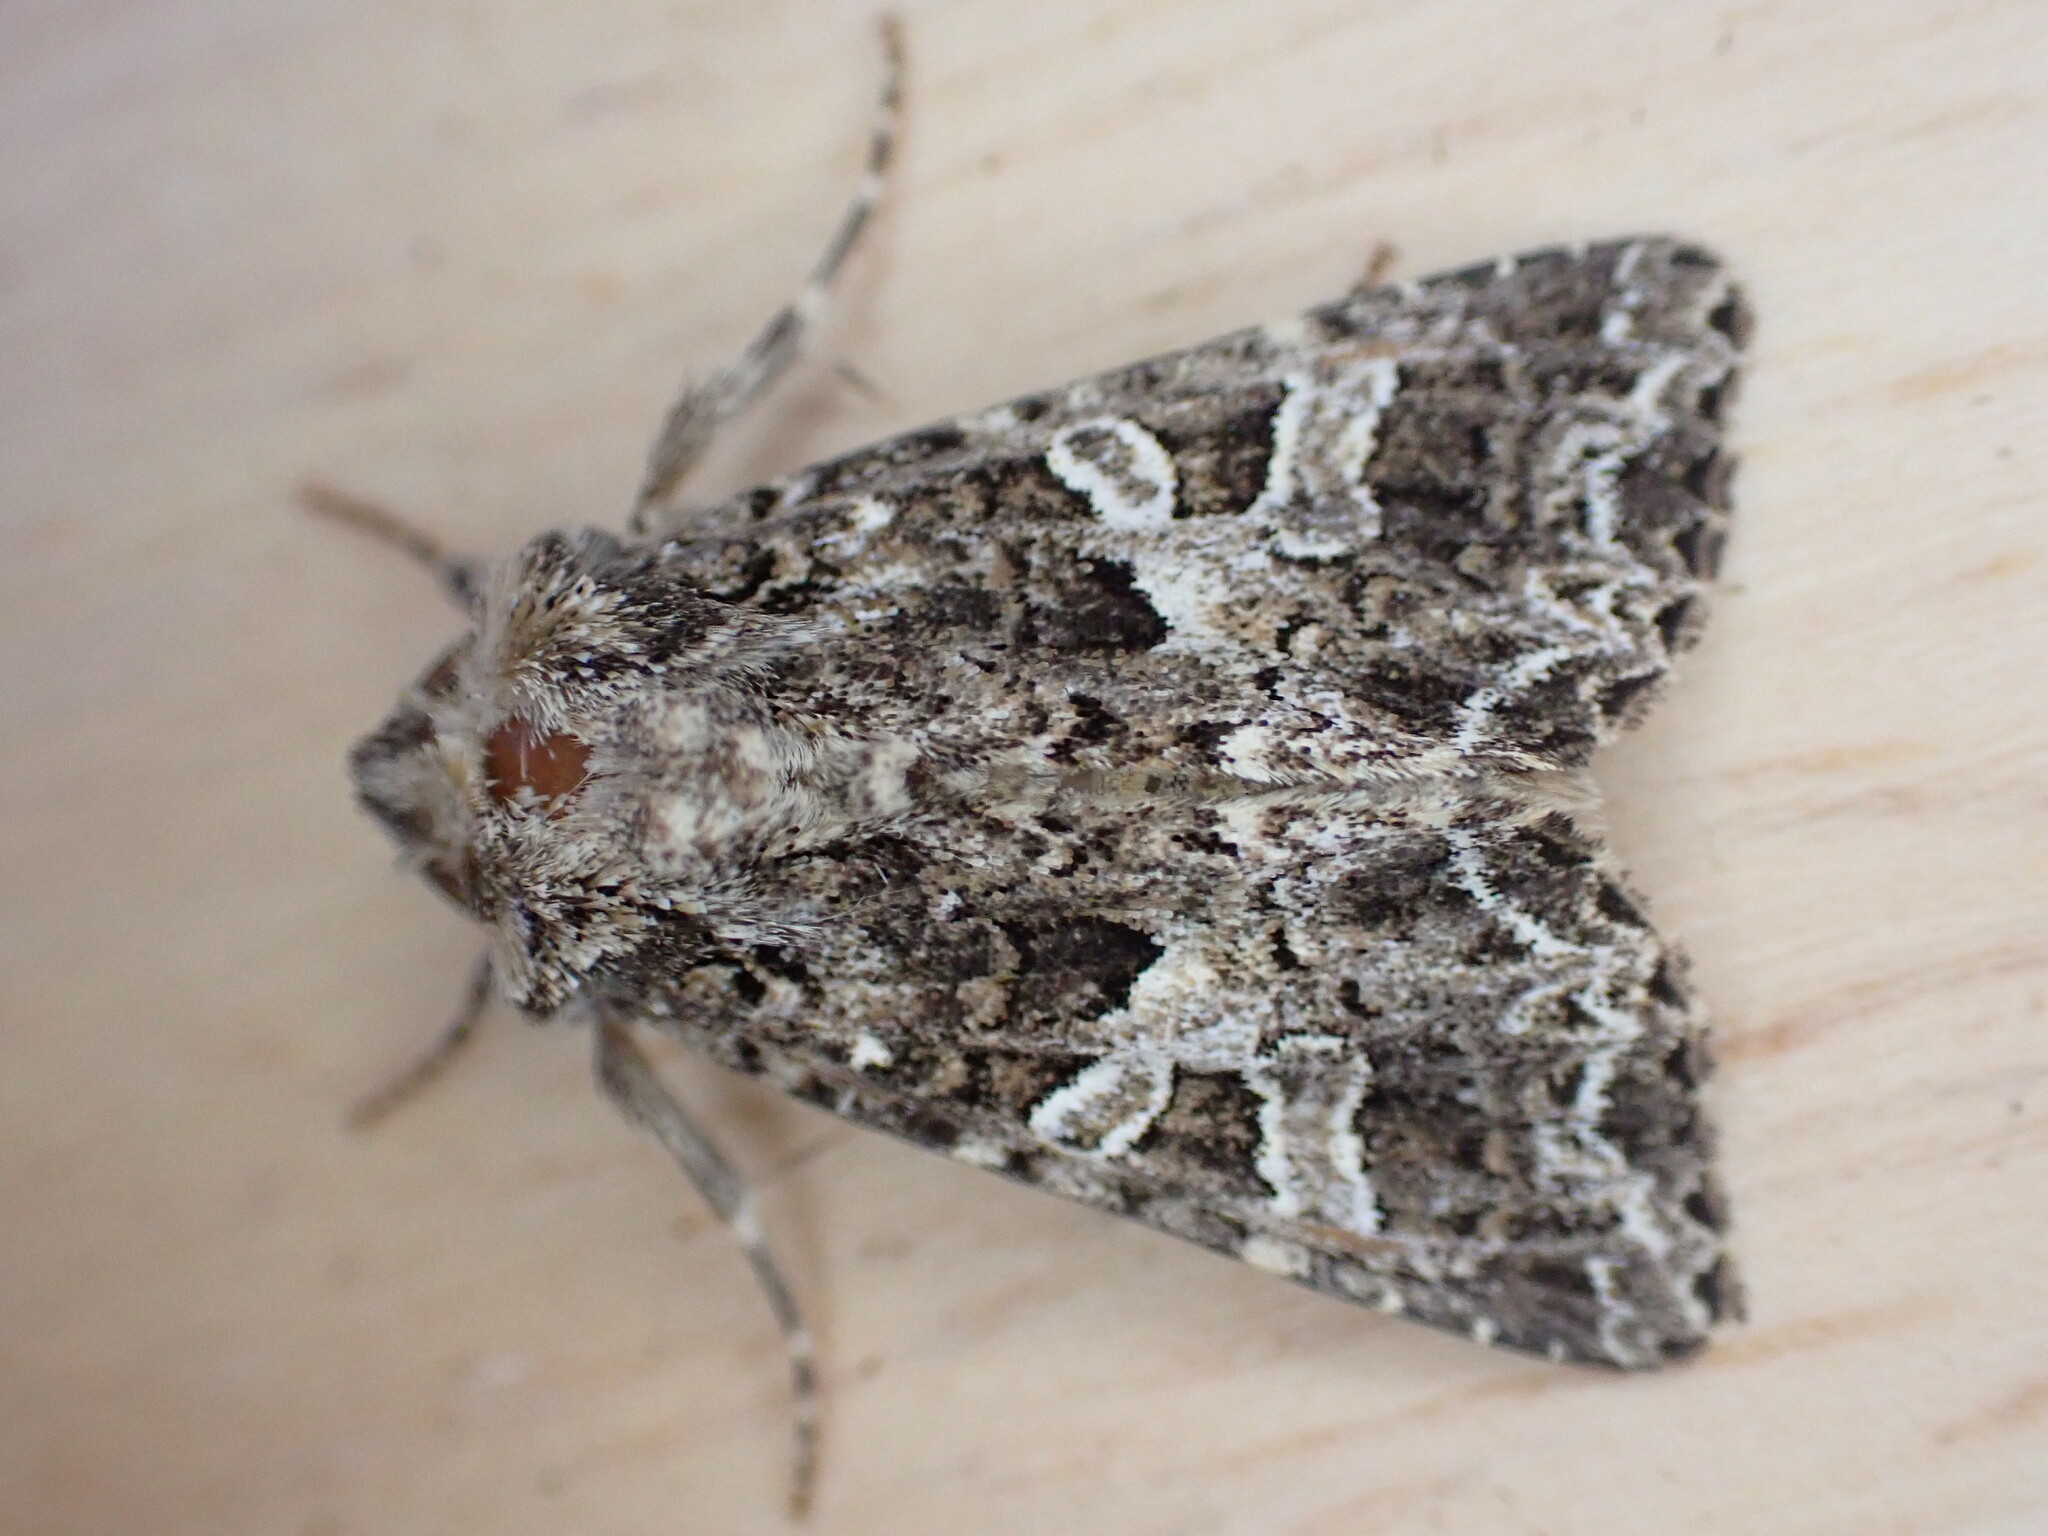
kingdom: Animalia
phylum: Arthropoda
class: Insecta
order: Lepidoptera
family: Noctuidae
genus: Hadena
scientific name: Hadena bicruris
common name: Lychnis
